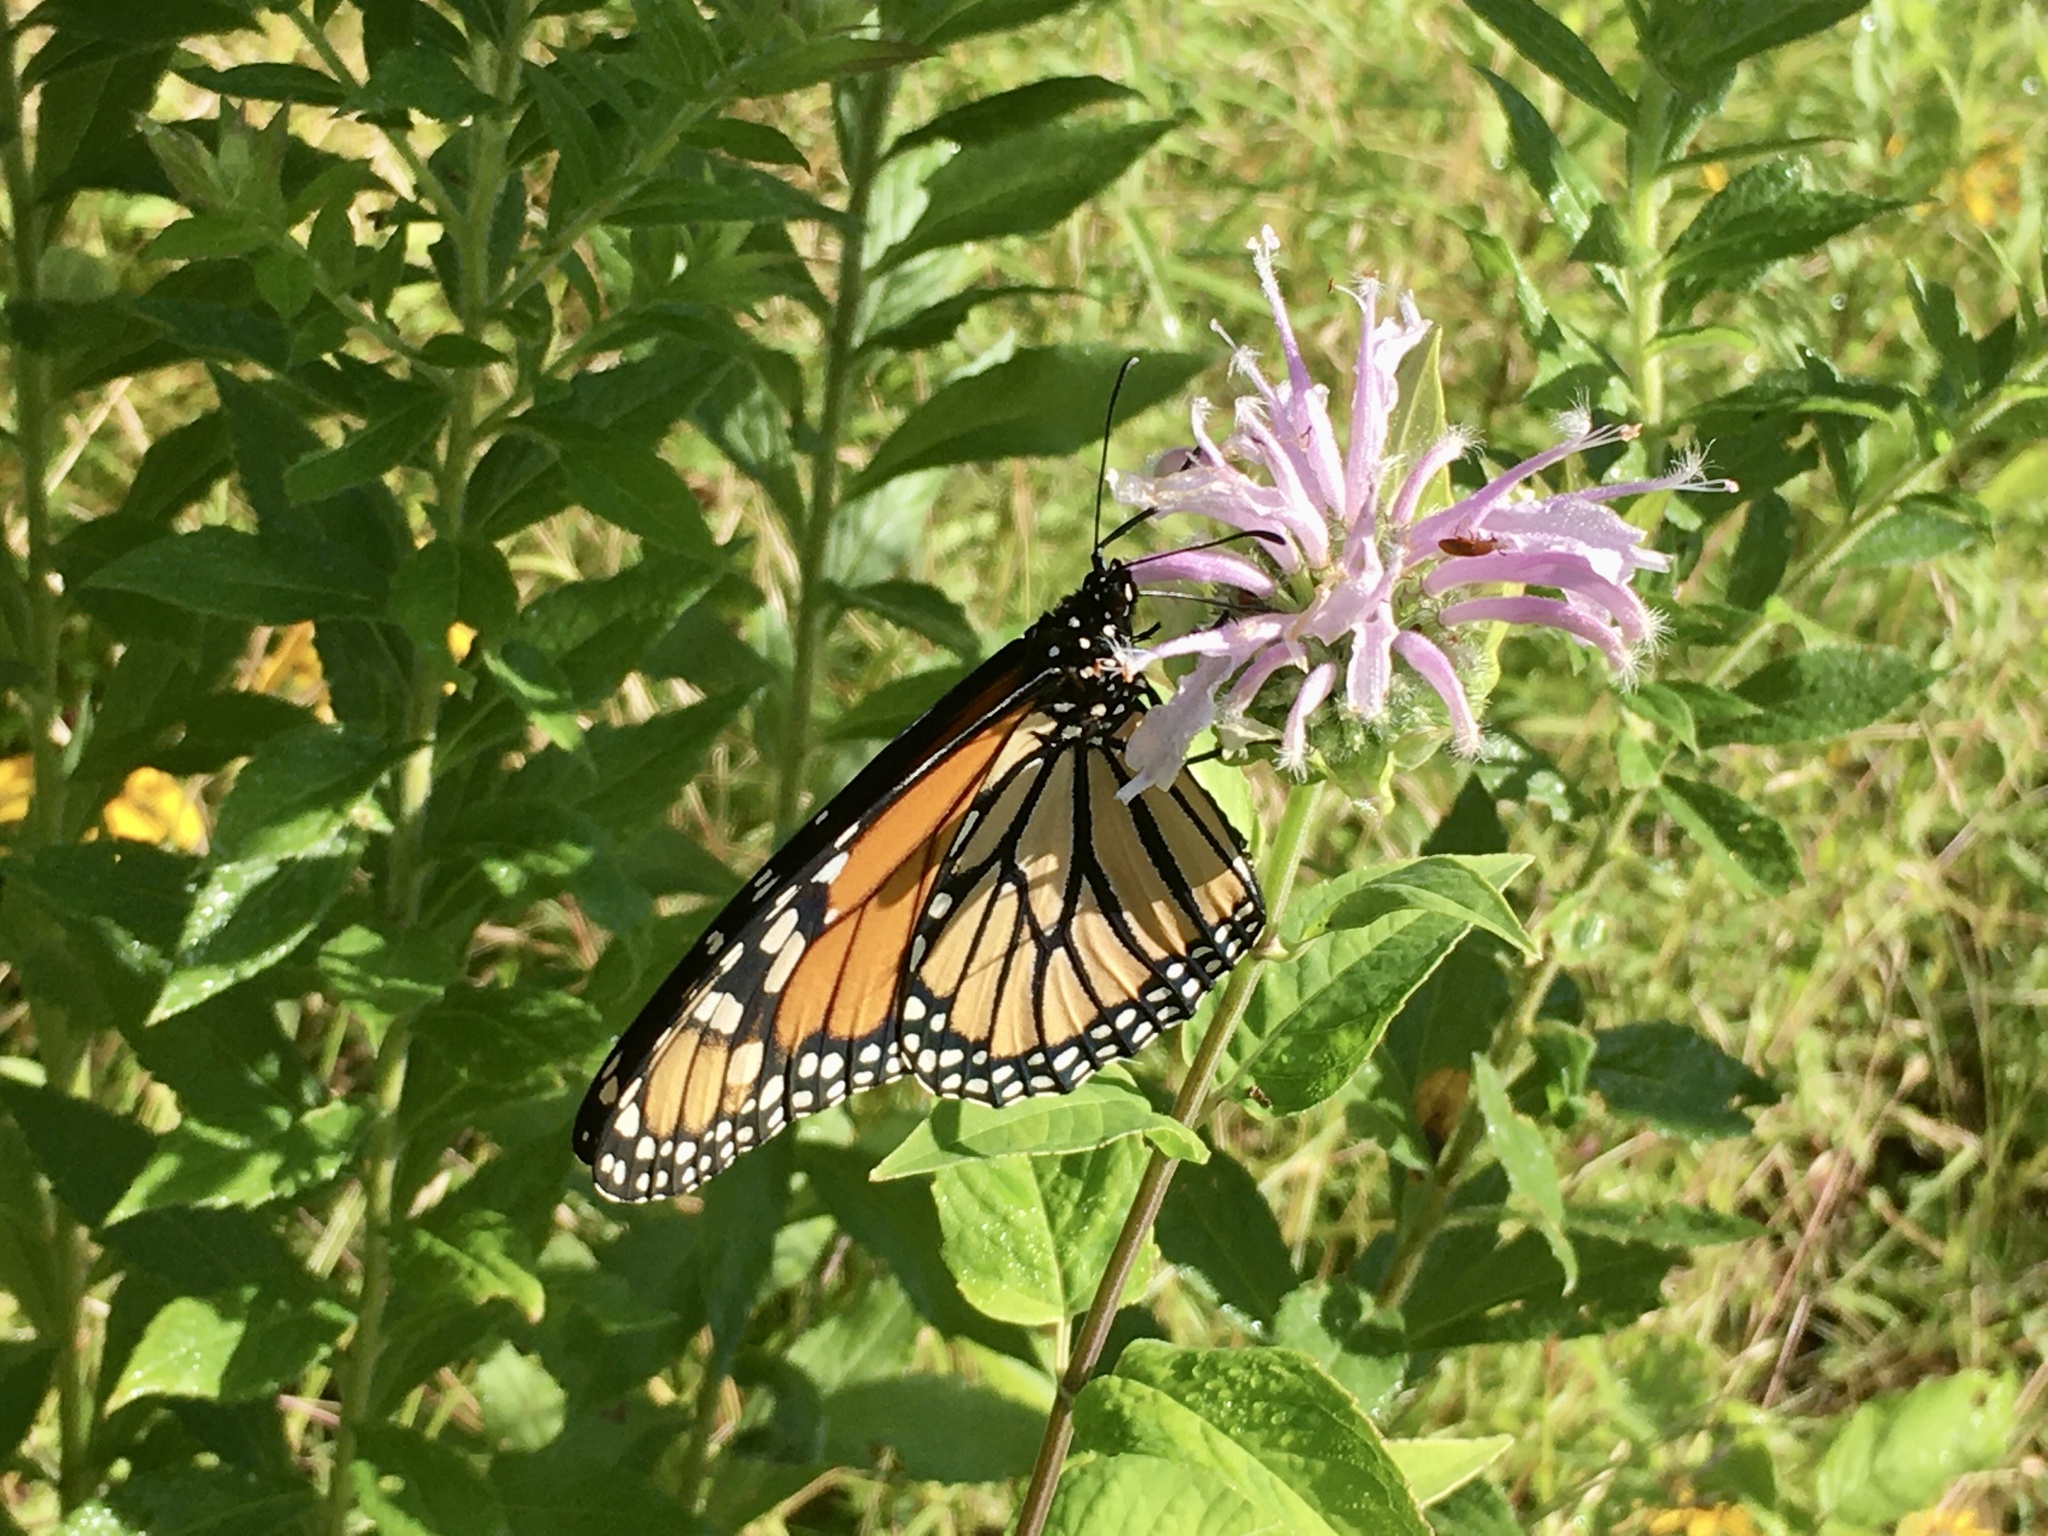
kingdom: Animalia
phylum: Arthropoda
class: Insecta
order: Lepidoptera
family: Nymphalidae
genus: Danaus
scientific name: Danaus plexippus
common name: Monarch
